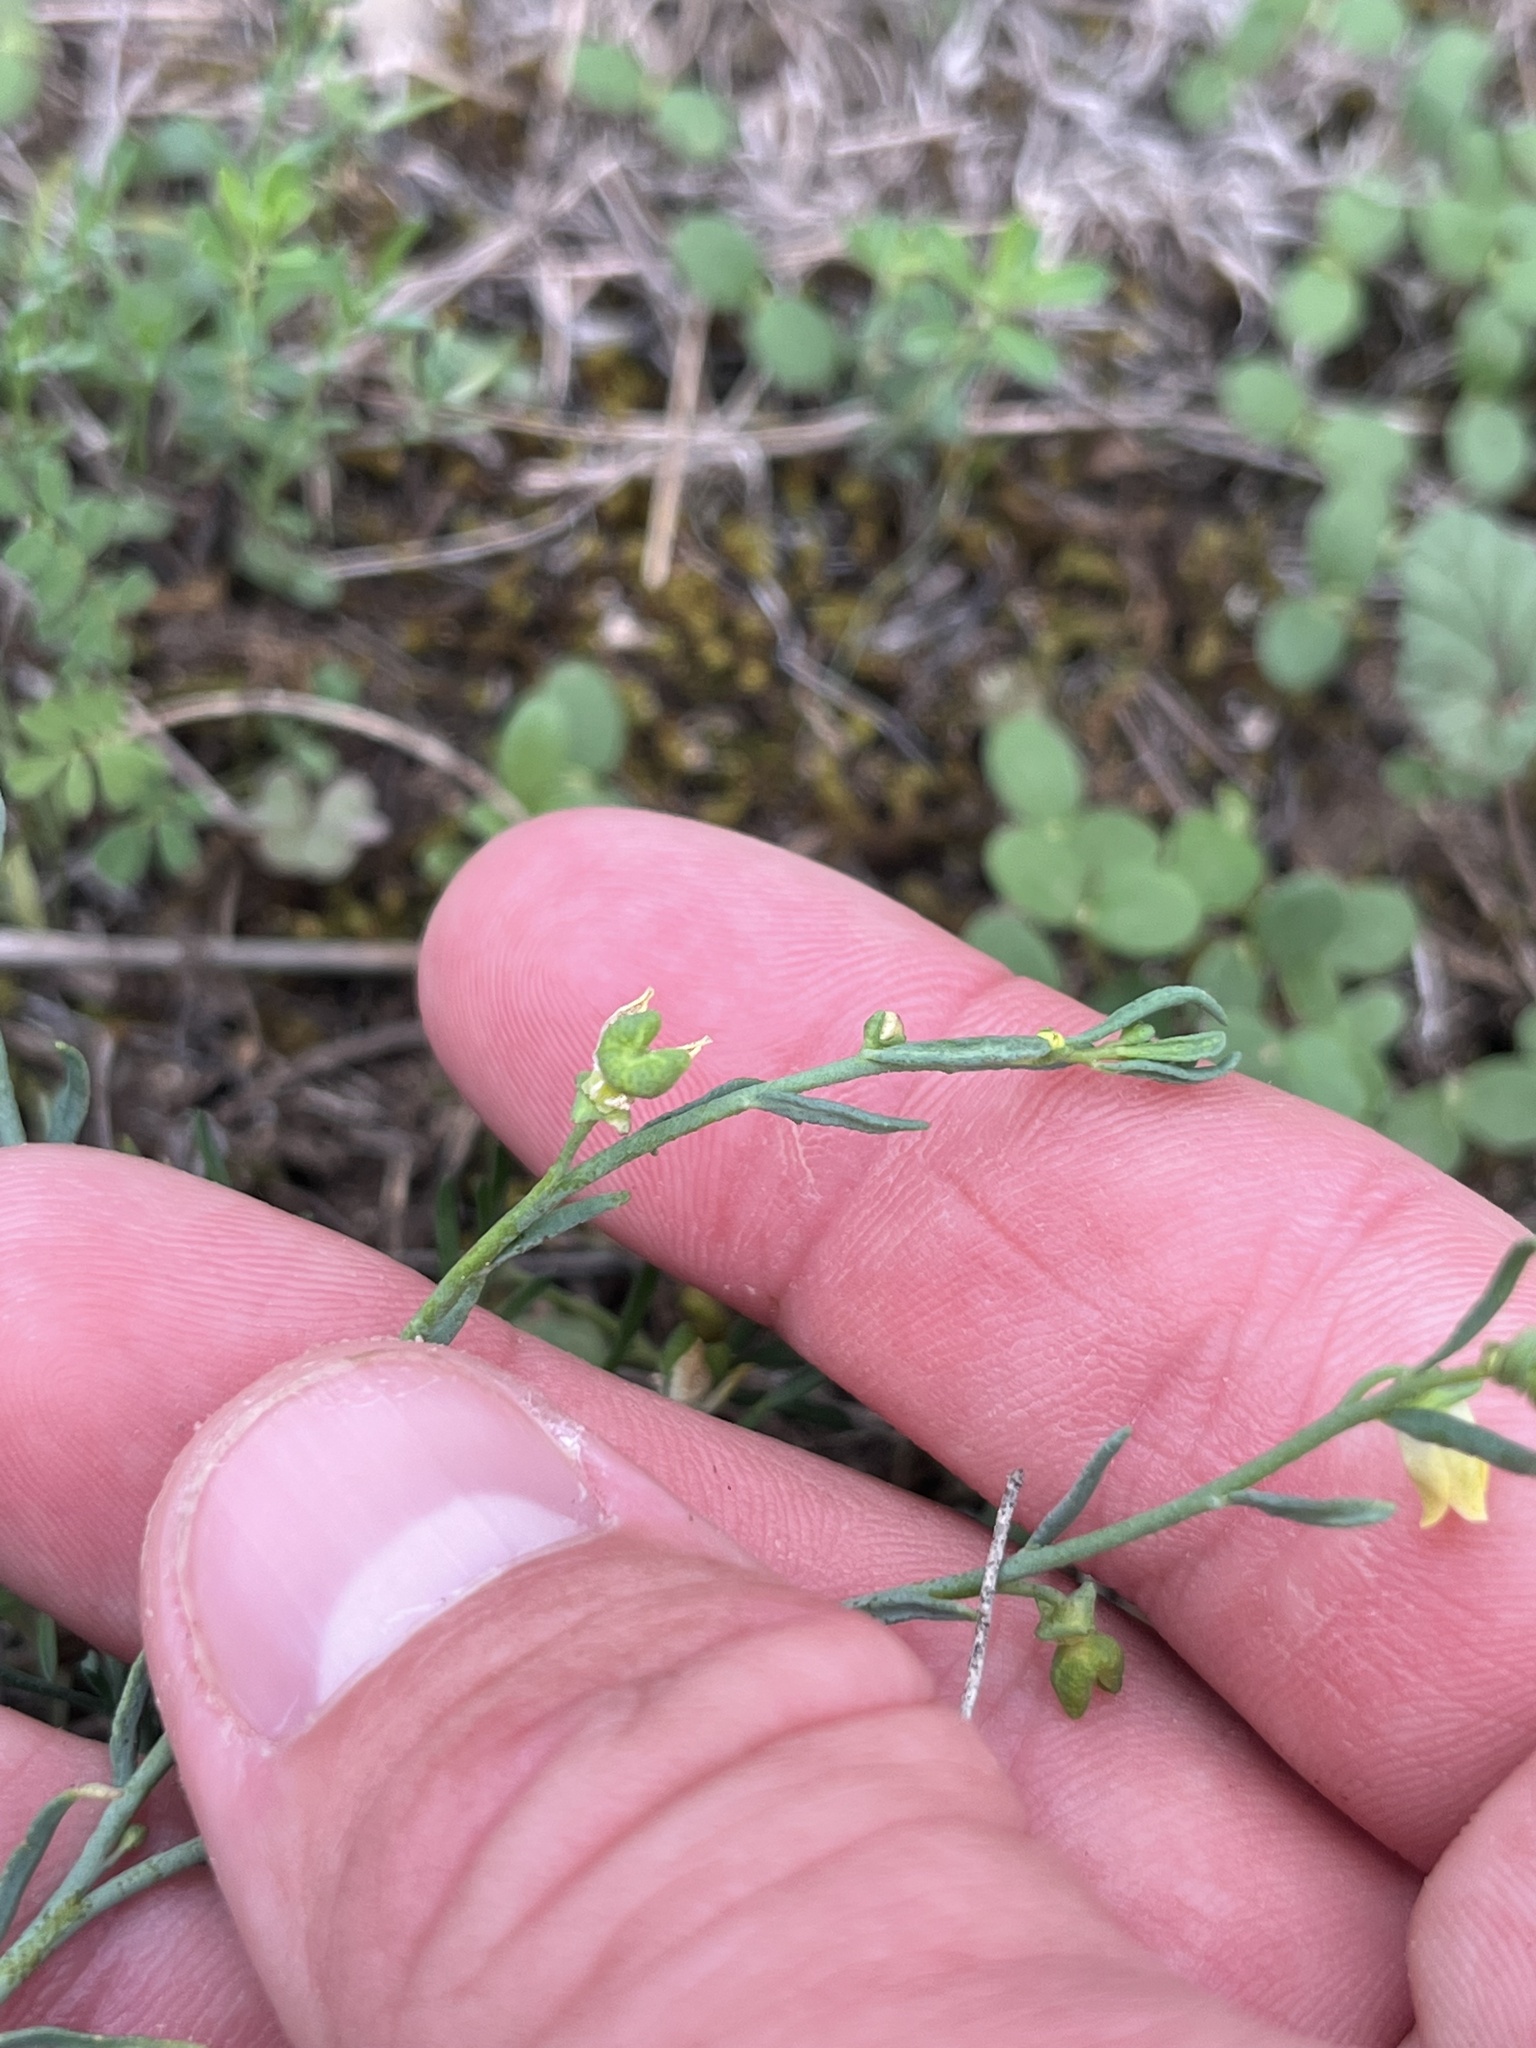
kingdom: Plantae
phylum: Tracheophyta
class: Magnoliopsida
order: Sapindales
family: Rutaceae
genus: Thamnosma
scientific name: Thamnosma texana
